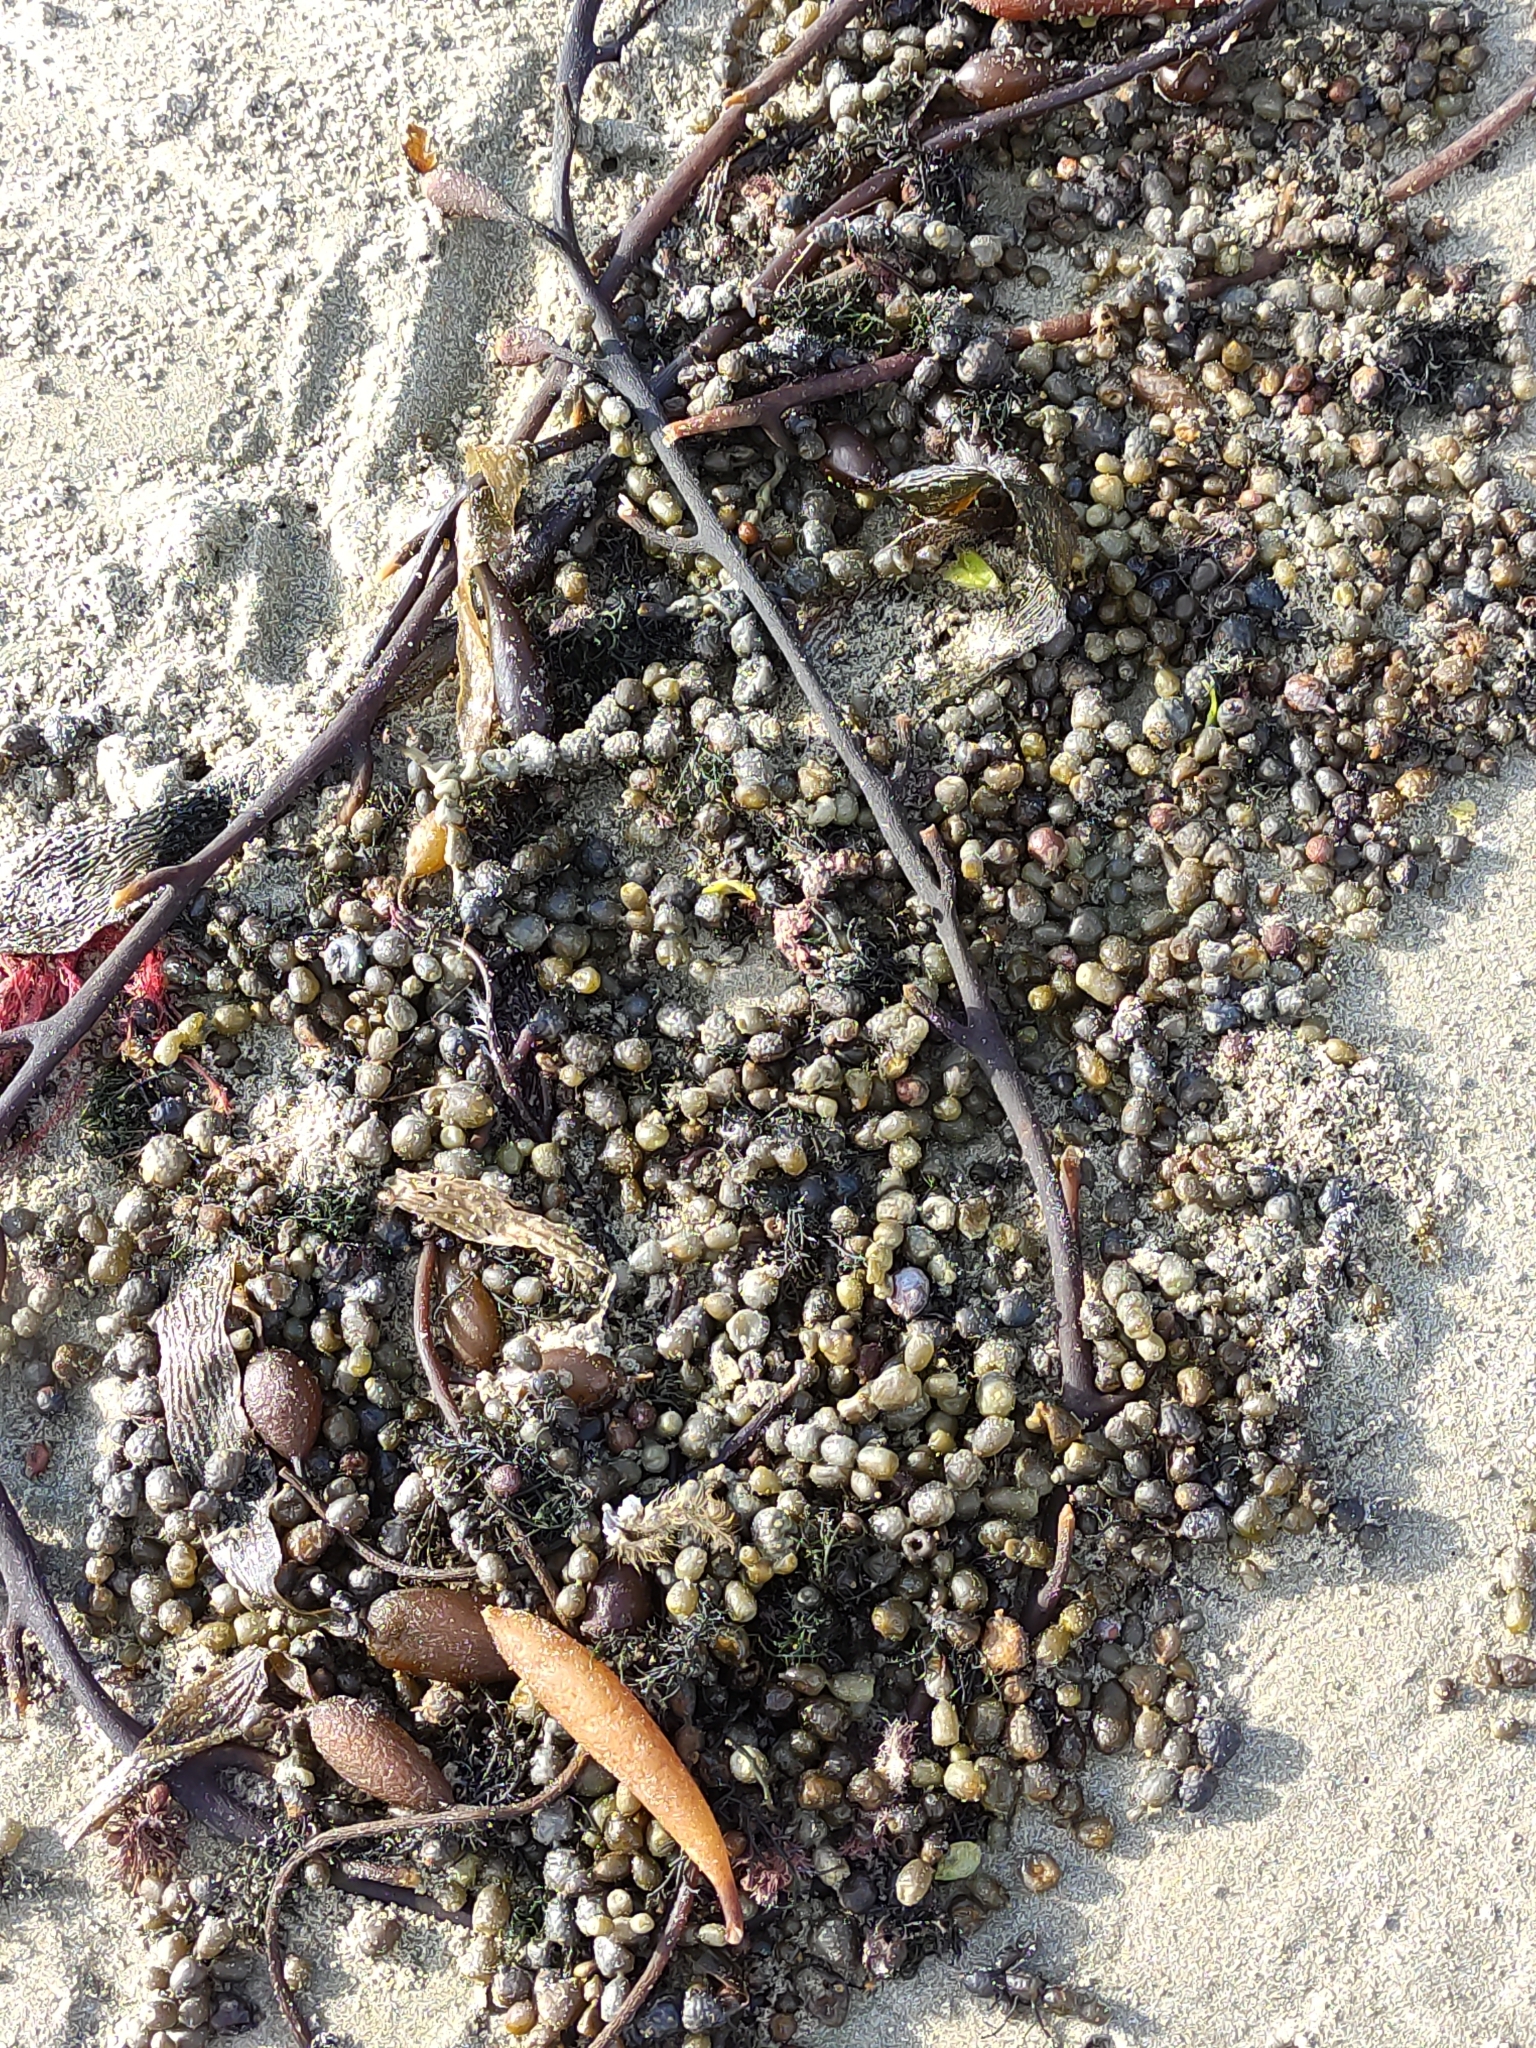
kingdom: Chromista
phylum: Ochrophyta
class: Phaeophyceae
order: Fucales
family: Hormosiraceae
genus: Hormosira
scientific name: Hormosira banksii
